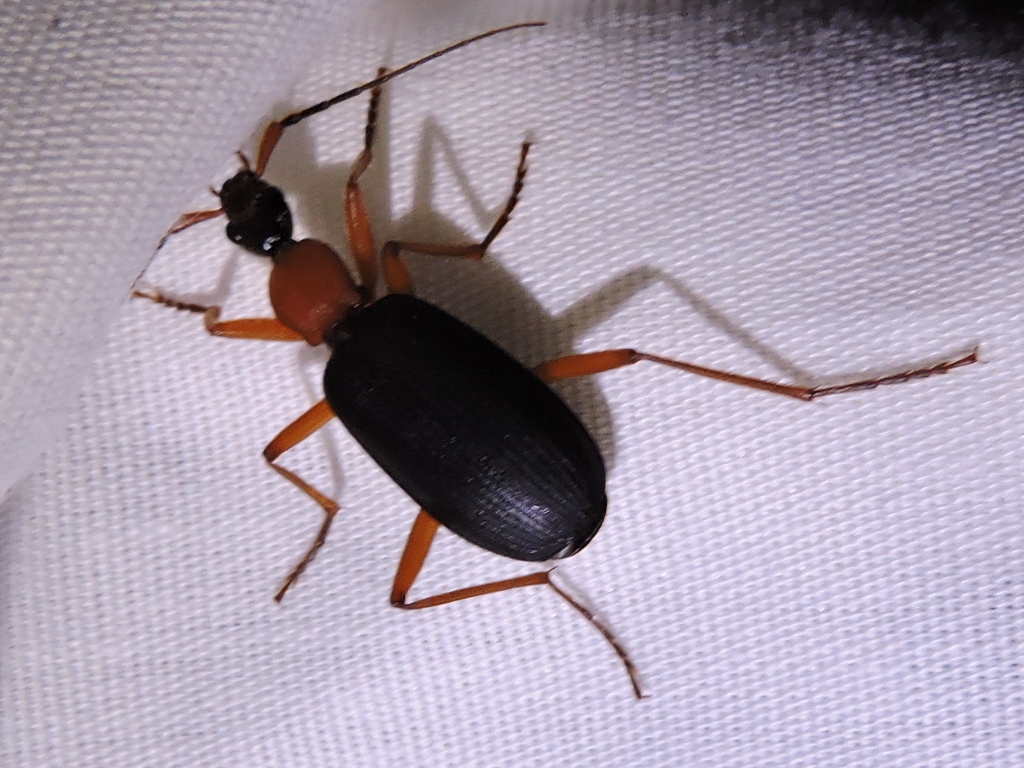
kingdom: Animalia
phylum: Arthropoda
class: Insecta
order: Coleoptera
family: Carabidae
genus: Galerita
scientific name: Galerita bicolor
